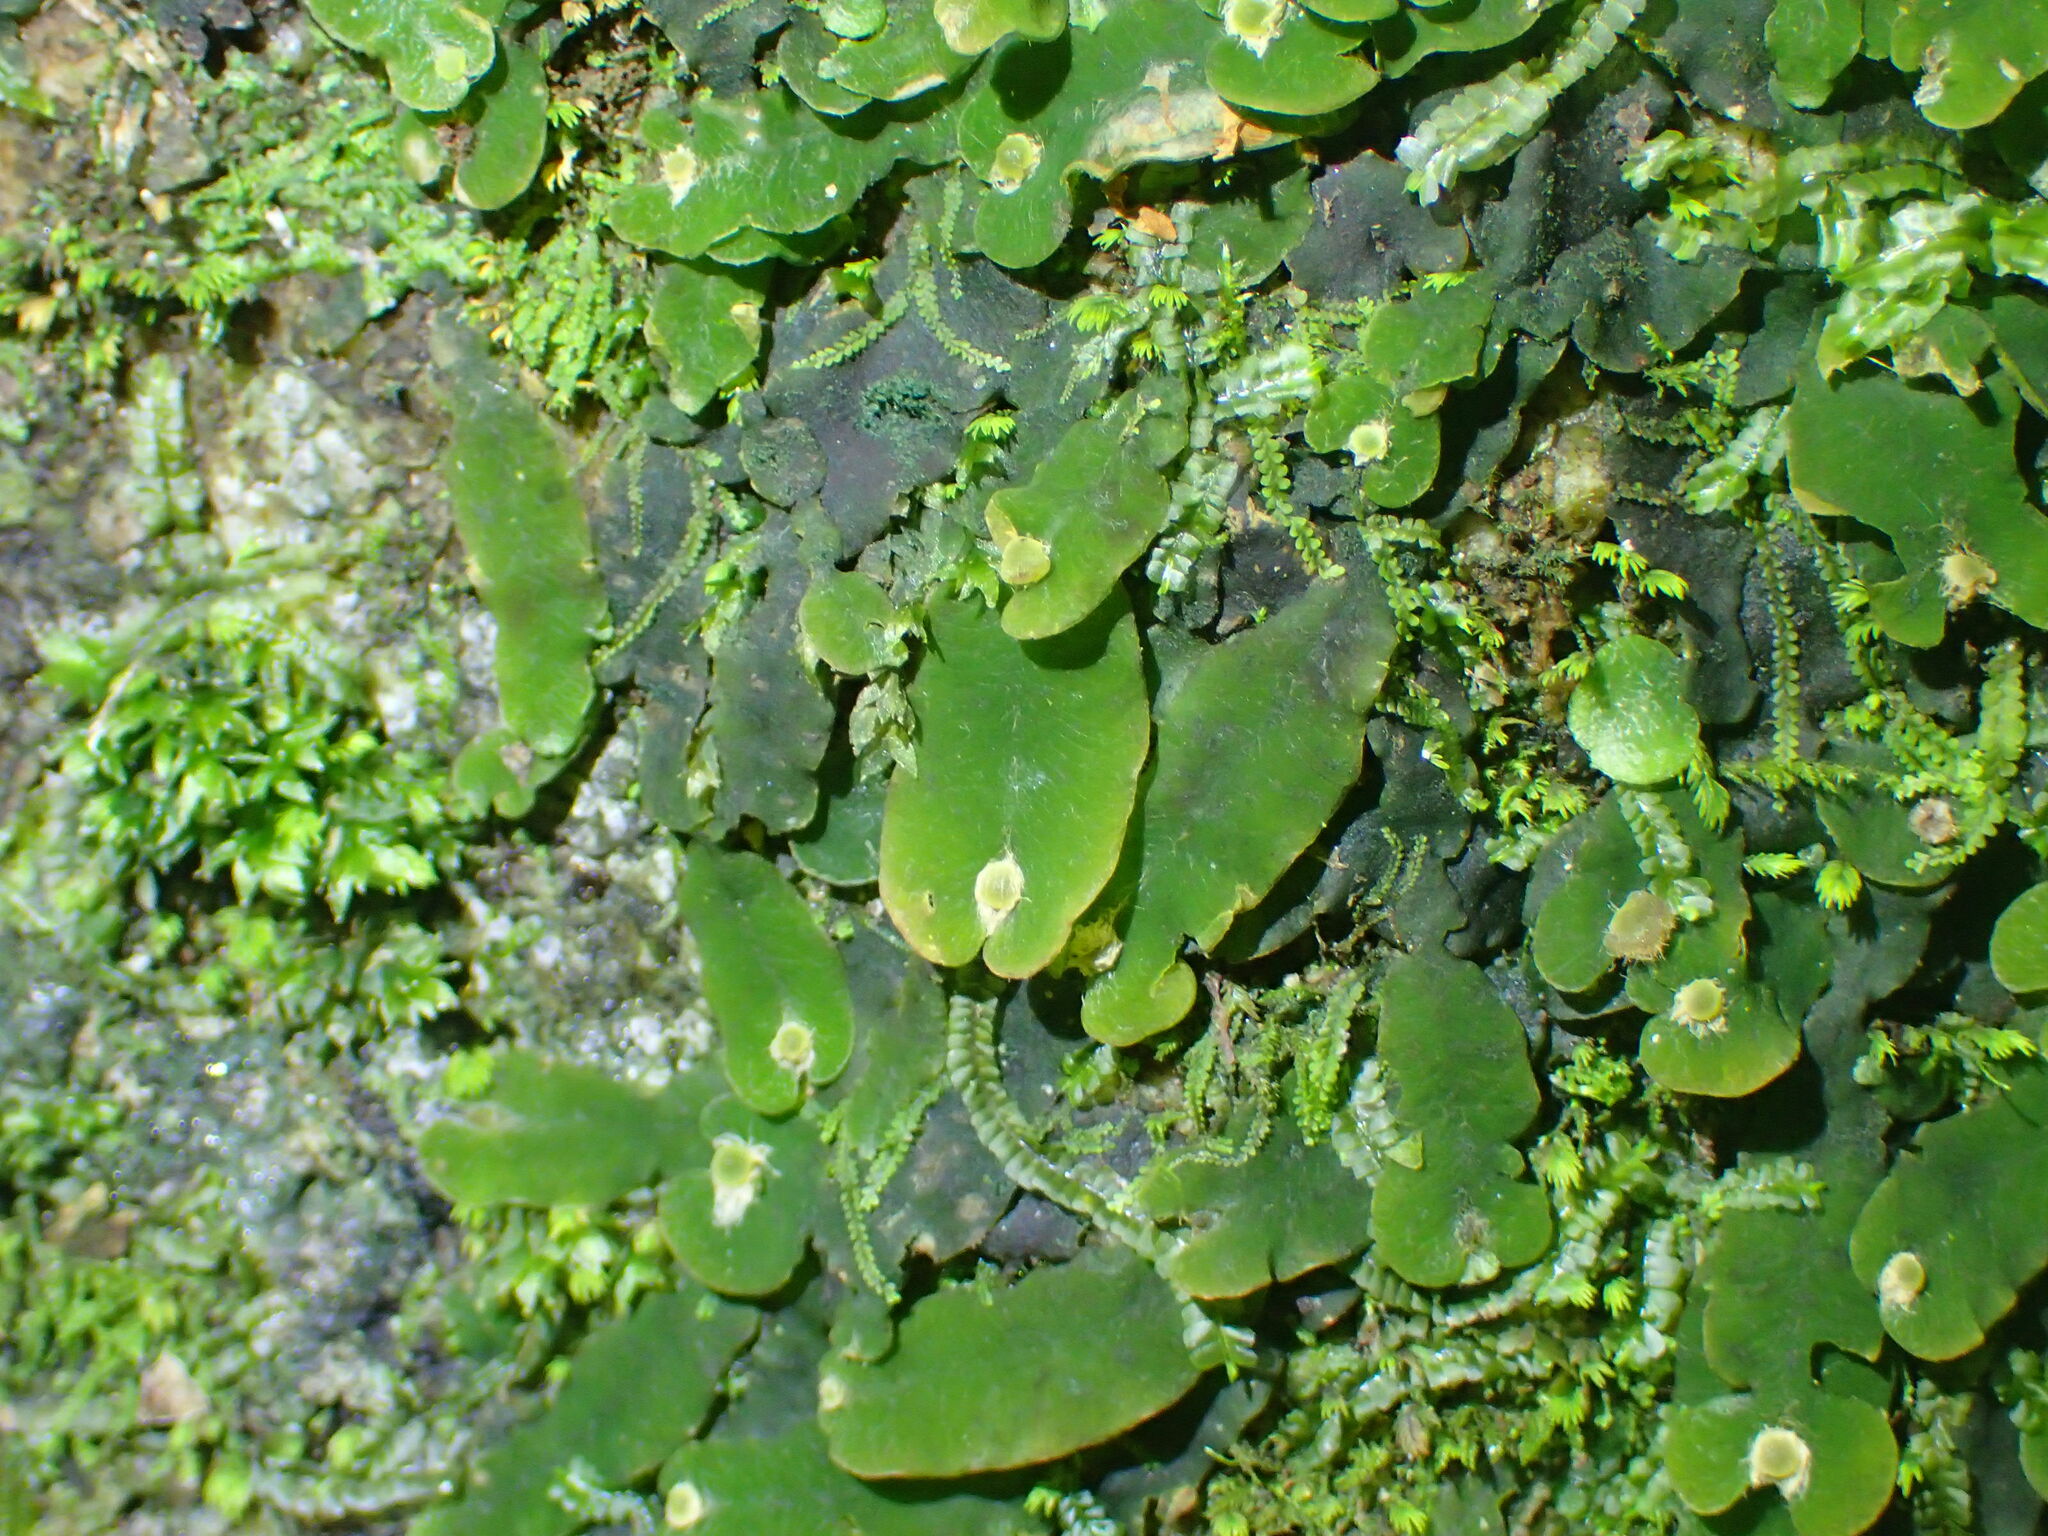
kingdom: Plantae
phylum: Marchantiophyta
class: Marchantiopsida
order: Marchantiales
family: Dumortieraceae
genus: Dumortiera
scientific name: Dumortiera hirsuta
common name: Dumortier's liverwort
